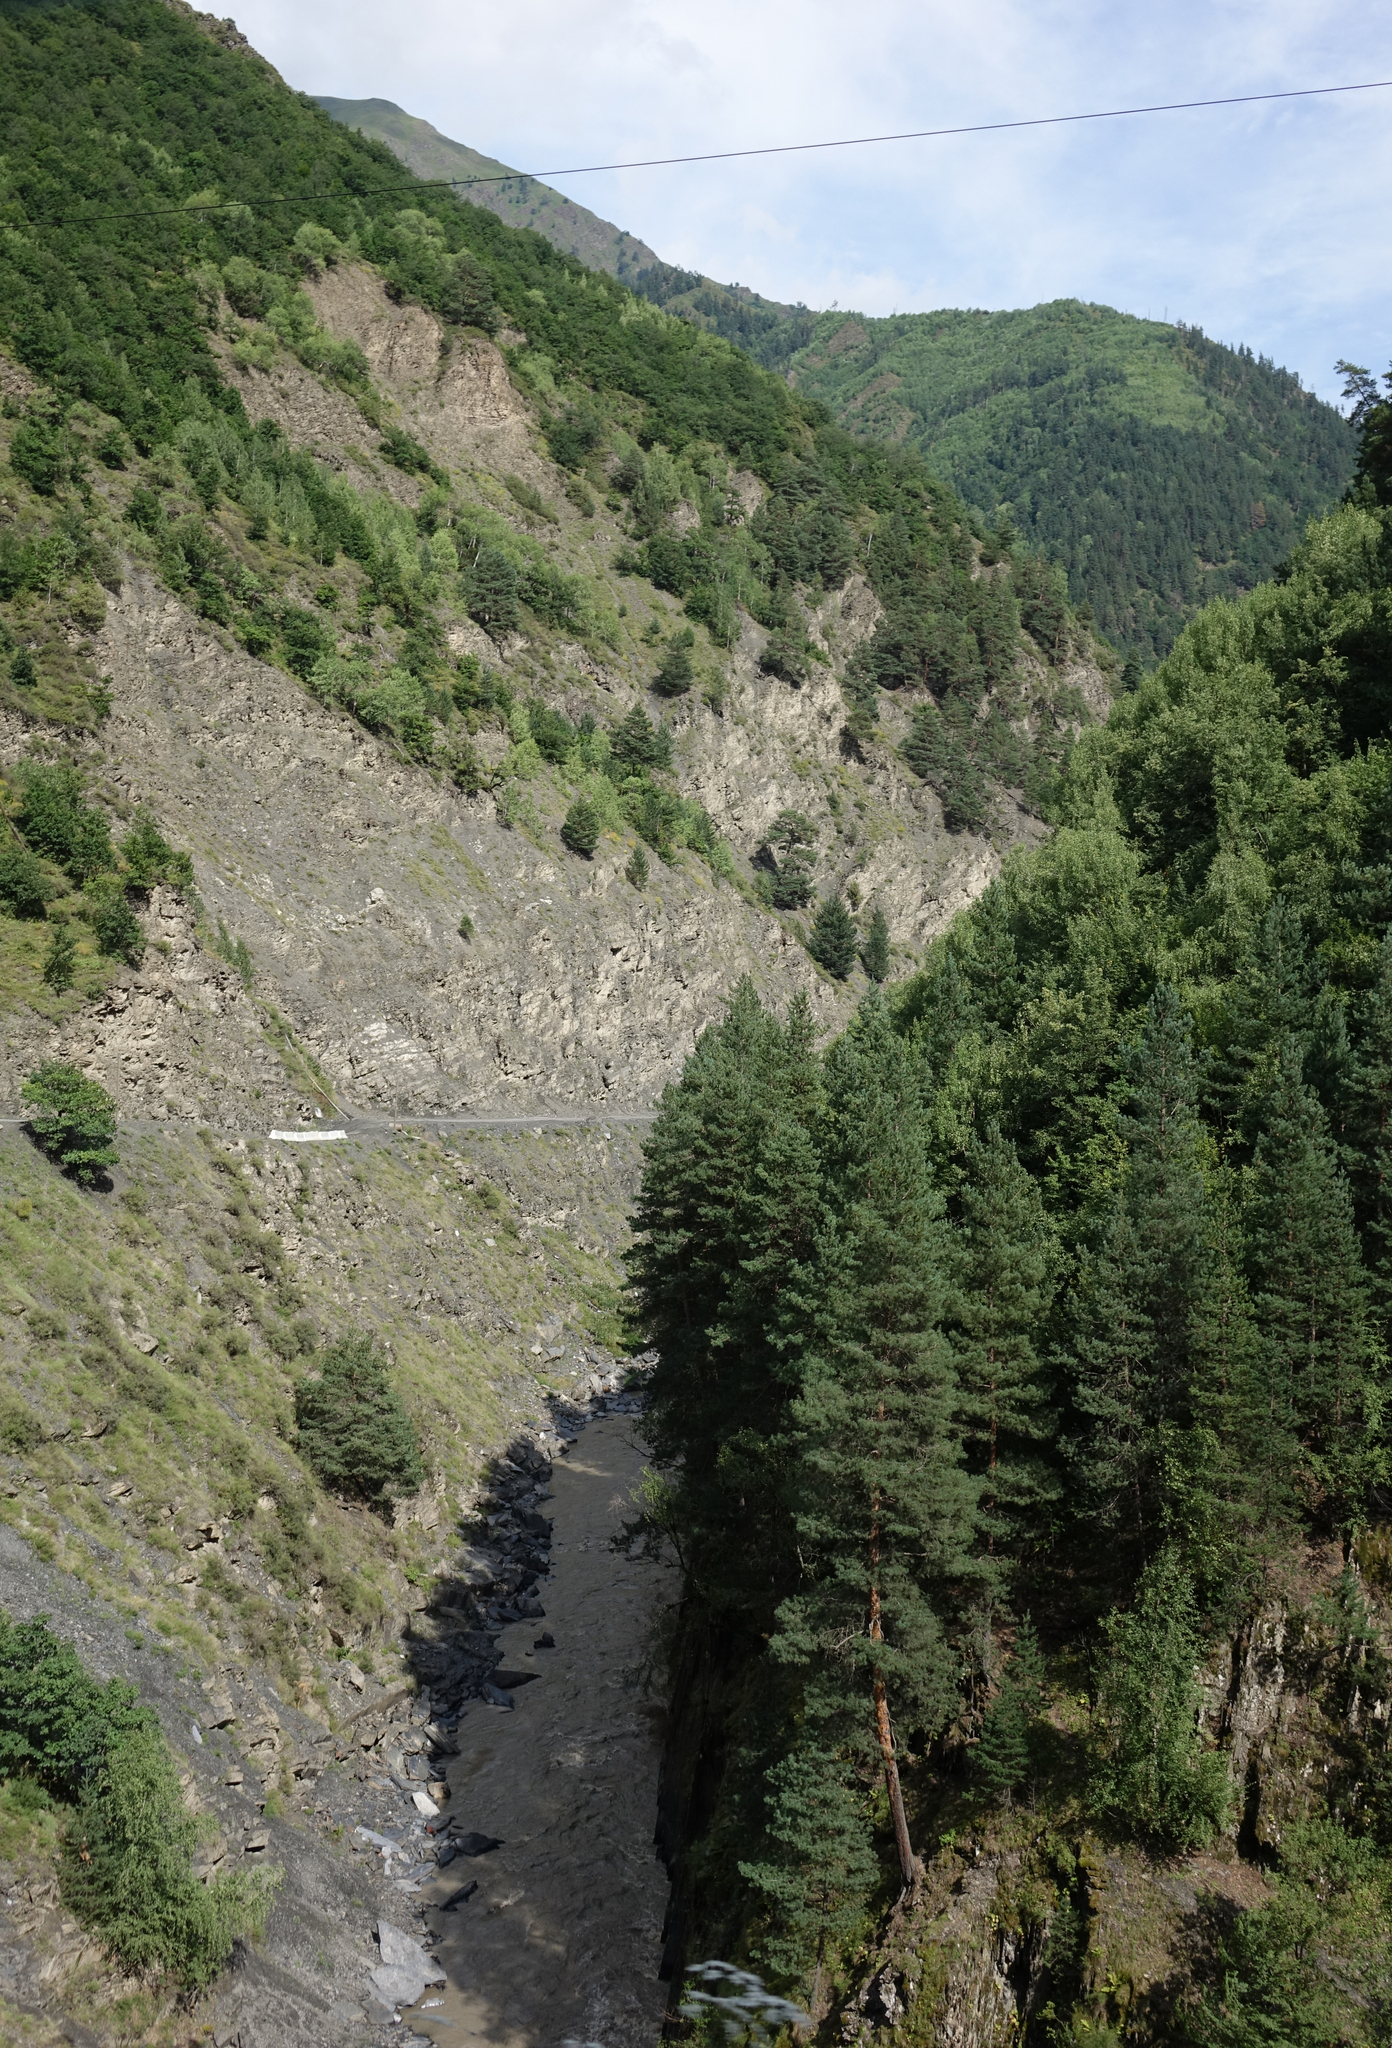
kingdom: Plantae
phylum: Tracheophyta
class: Pinopsida
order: Pinales
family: Pinaceae
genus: Pinus
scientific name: Pinus sylvestris
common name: Scots pine
